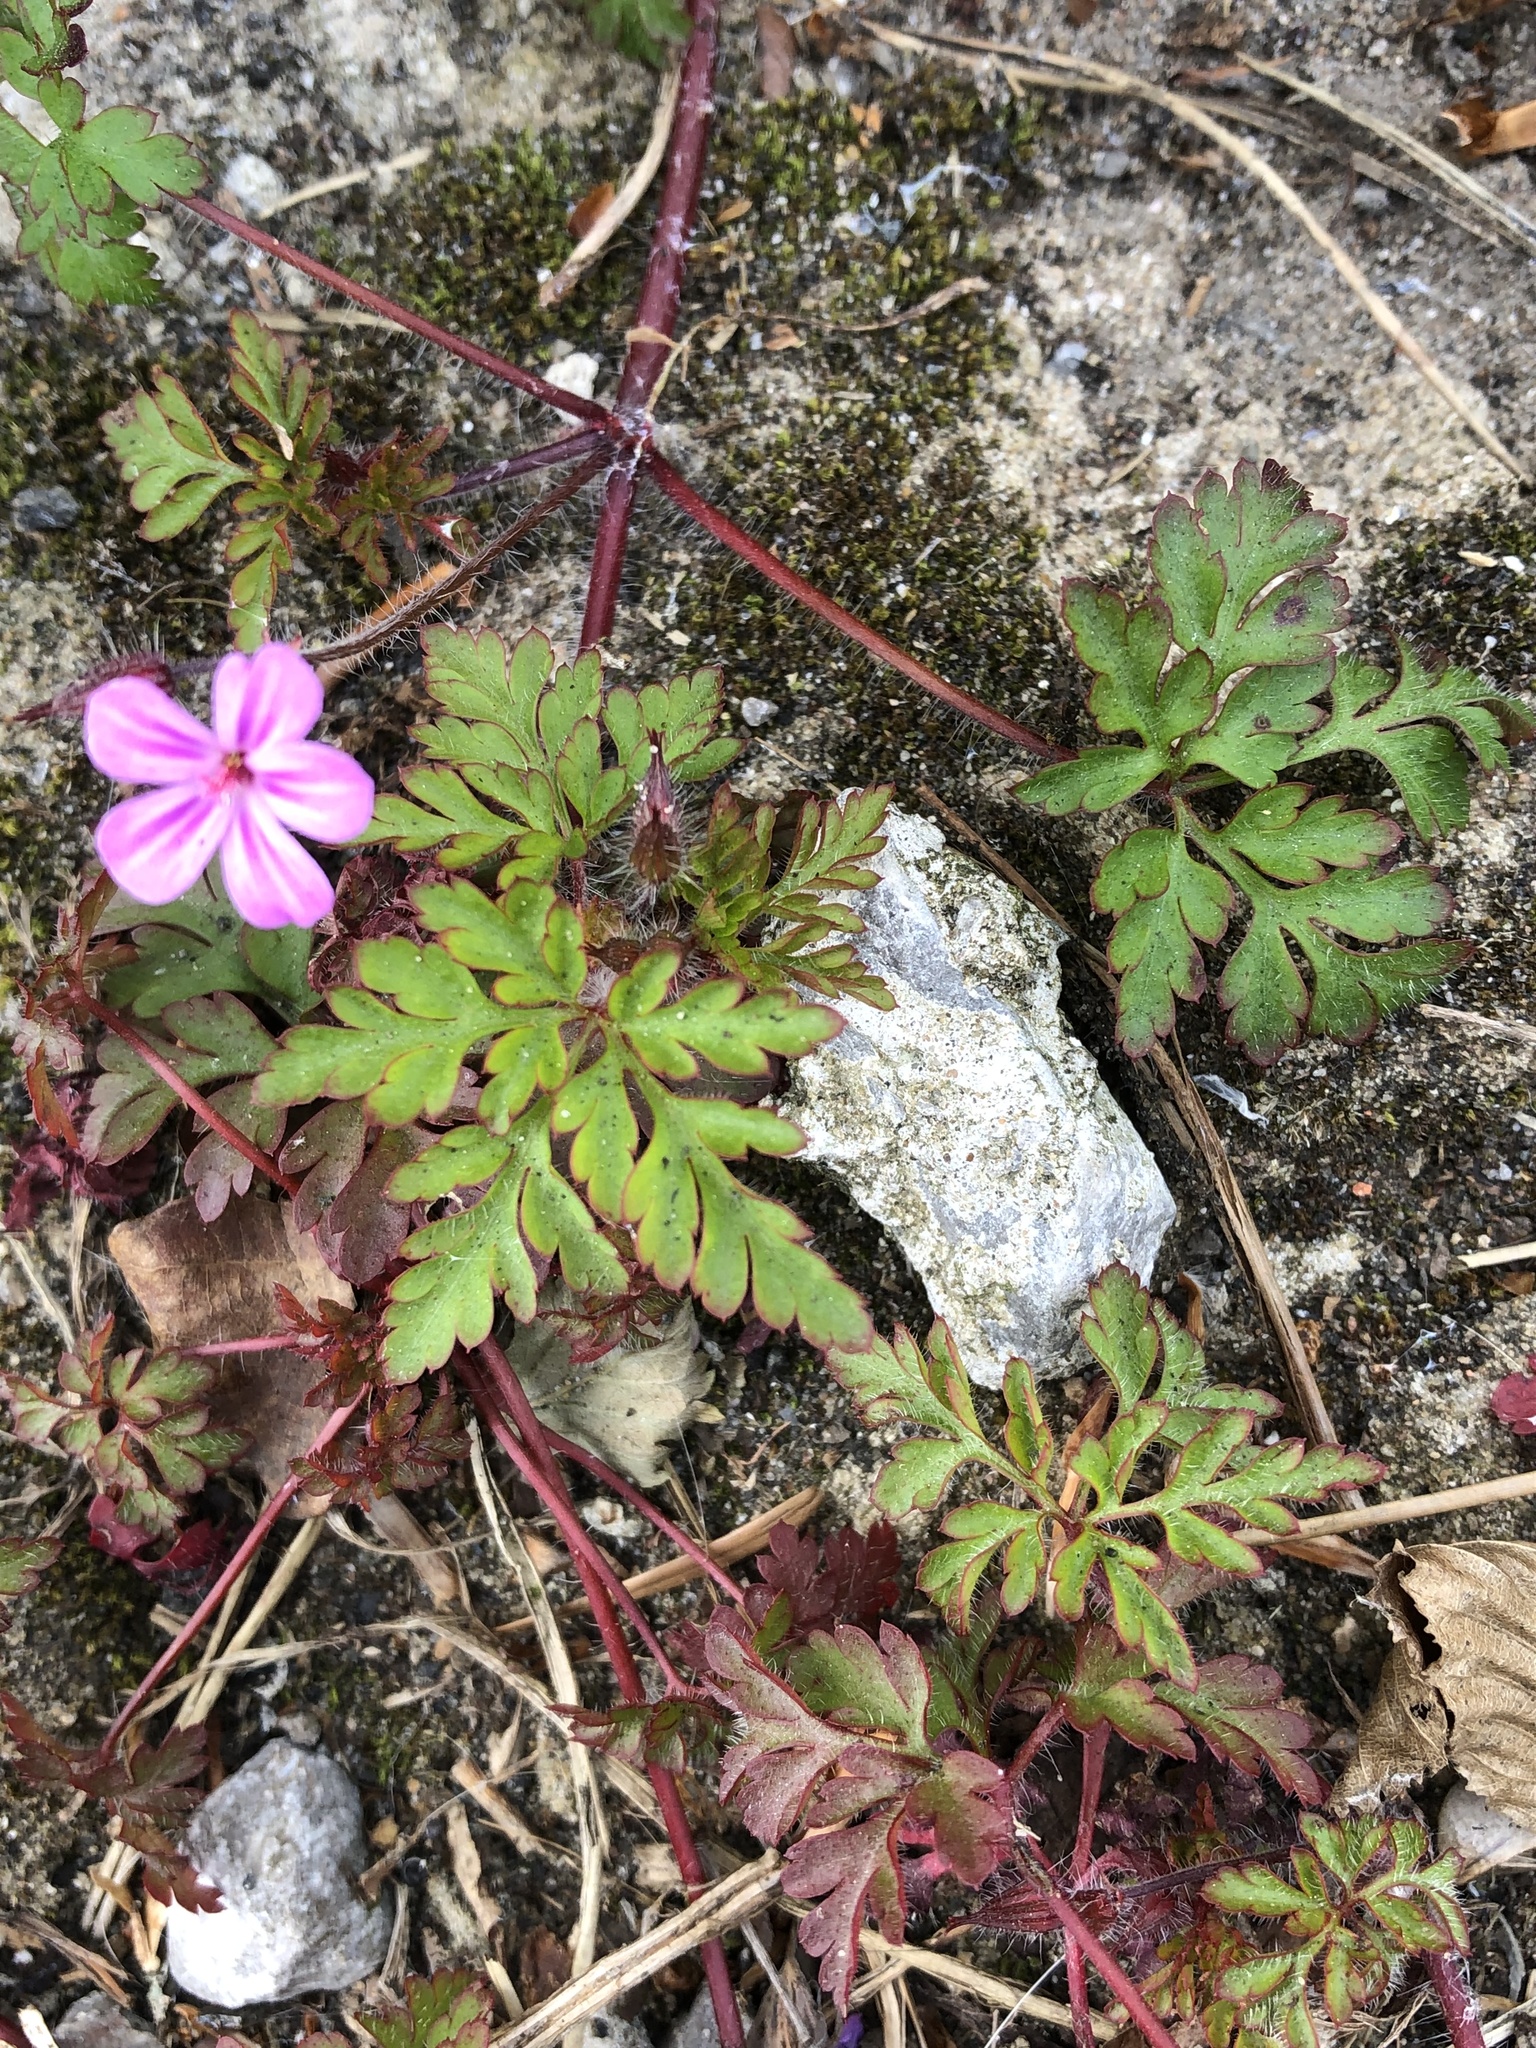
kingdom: Plantae
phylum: Tracheophyta
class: Magnoliopsida
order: Geraniales
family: Geraniaceae
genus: Geranium
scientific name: Geranium robertianum
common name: Herb-robert
